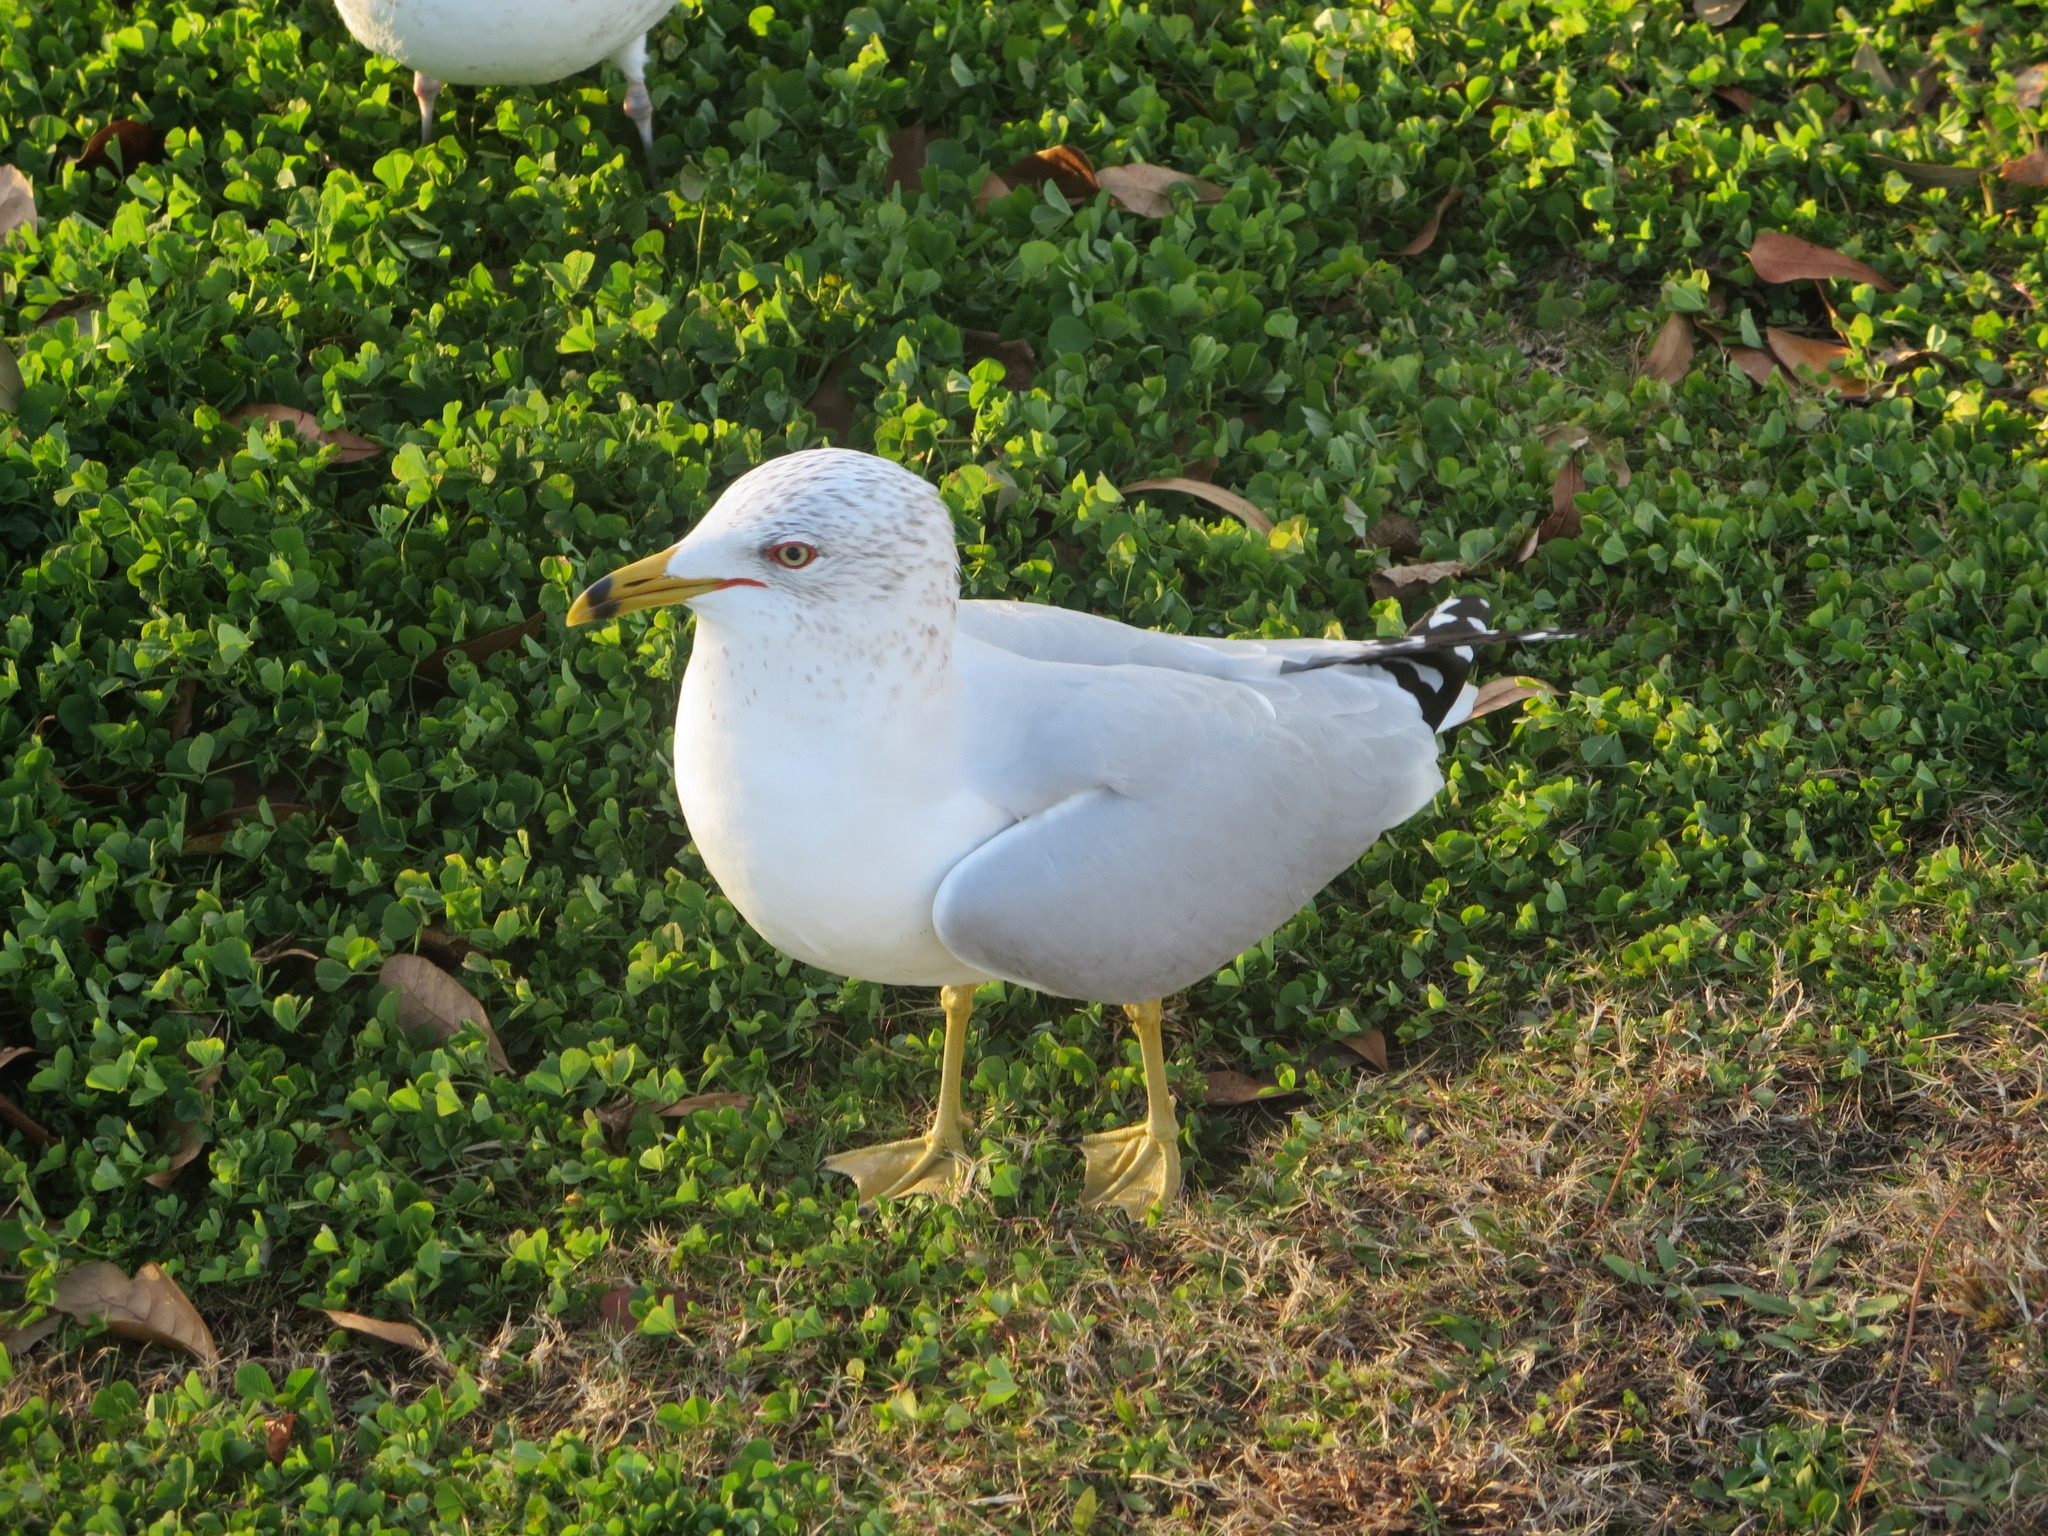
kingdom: Animalia
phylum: Chordata
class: Aves
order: Charadriiformes
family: Laridae
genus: Larus
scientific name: Larus delawarensis
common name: Ring-billed gull
